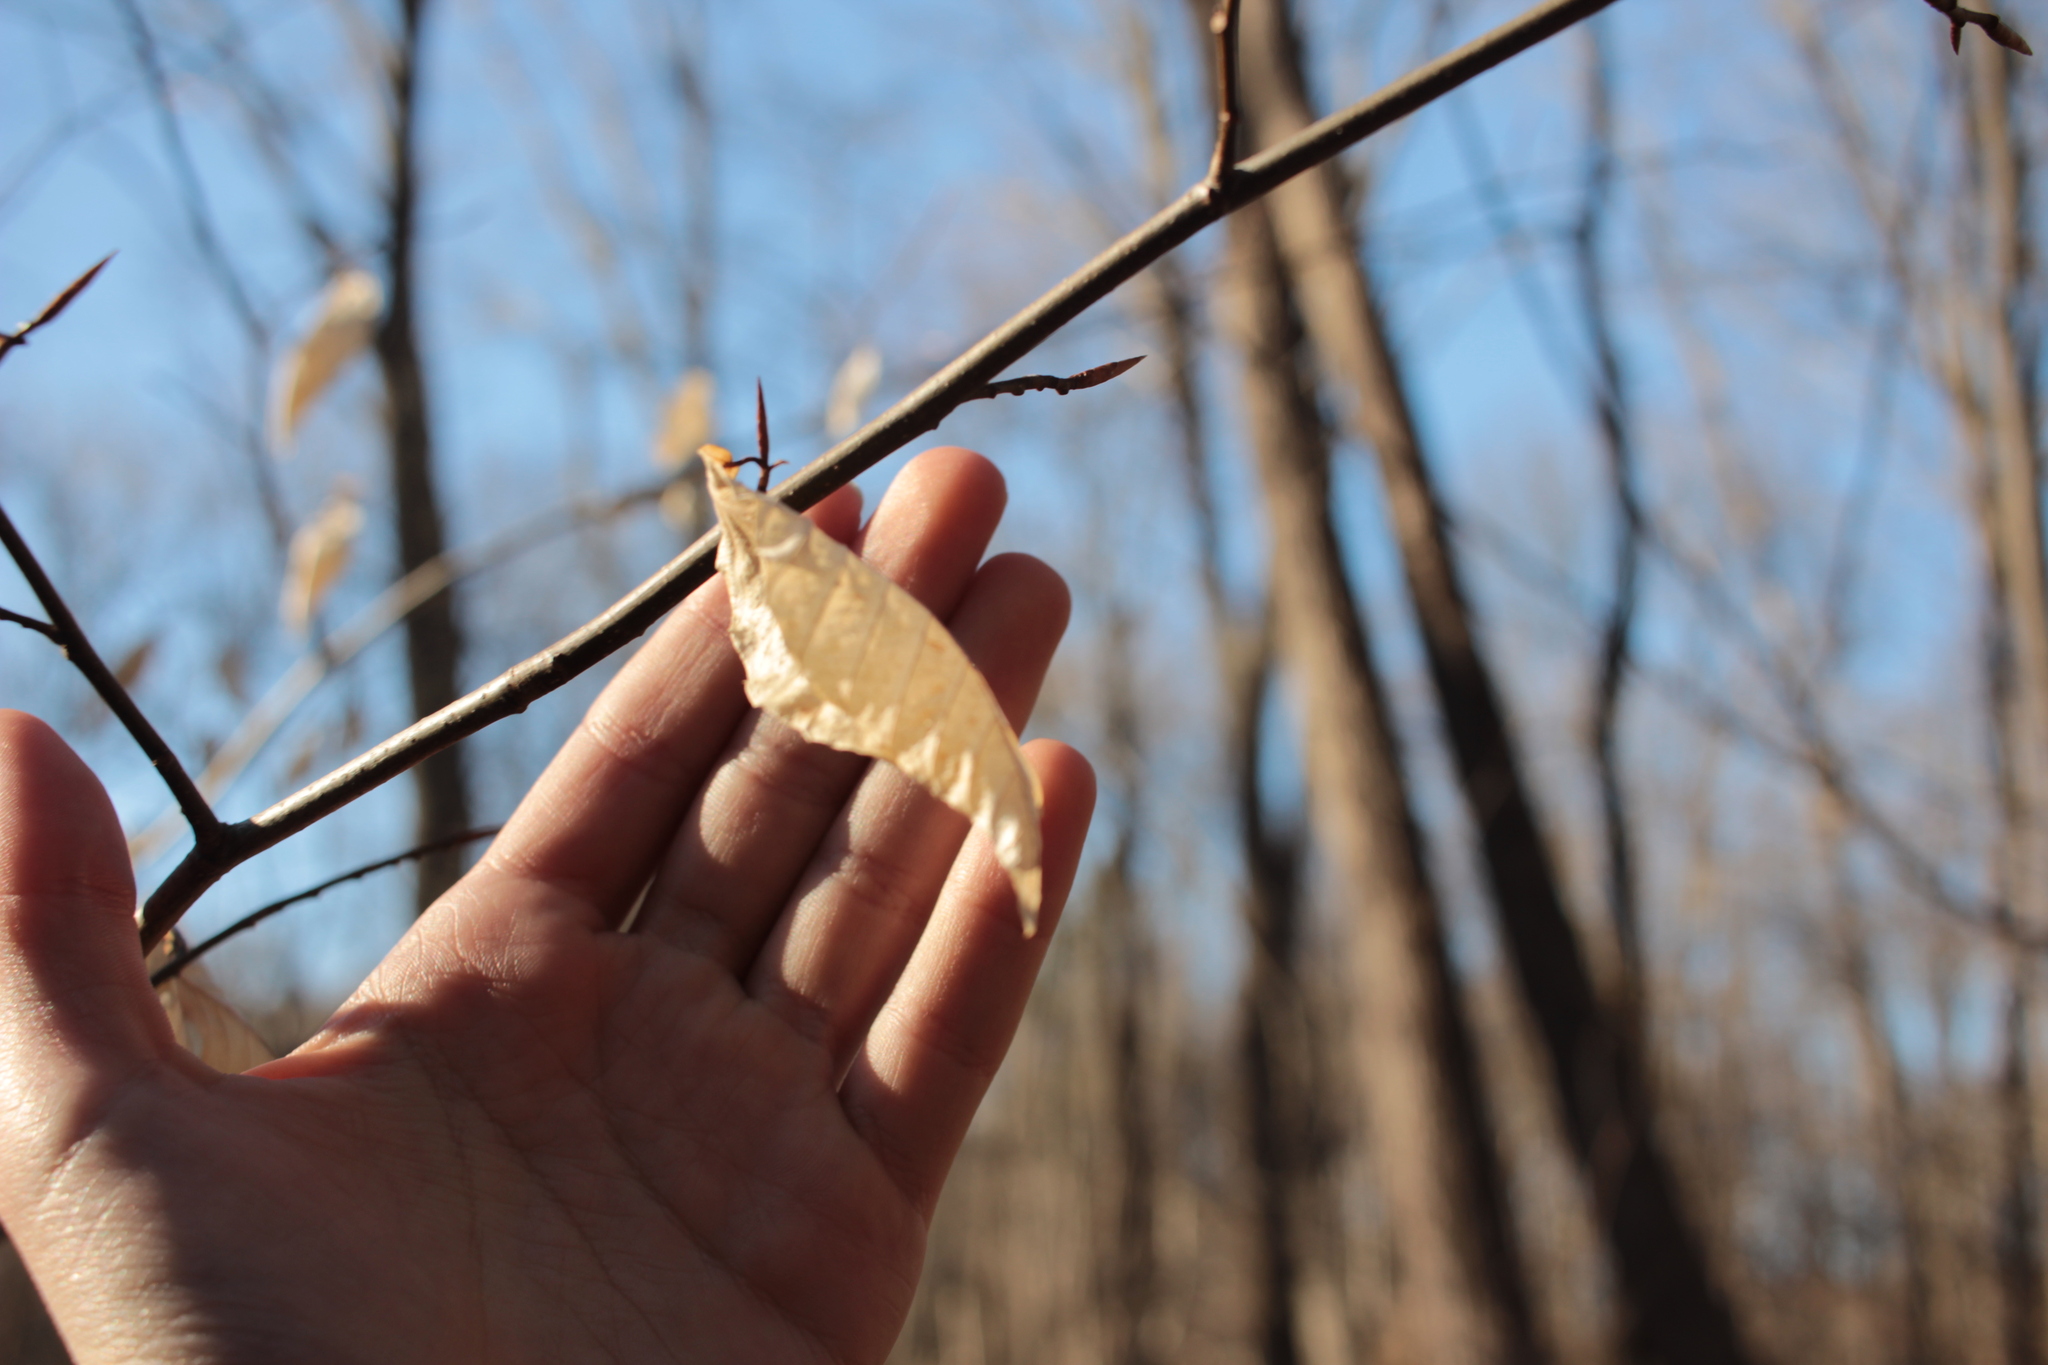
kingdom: Plantae
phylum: Tracheophyta
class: Magnoliopsida
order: Fagales
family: Fagaceae
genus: Fagus
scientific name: Fagus grandifolia
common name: American beech
